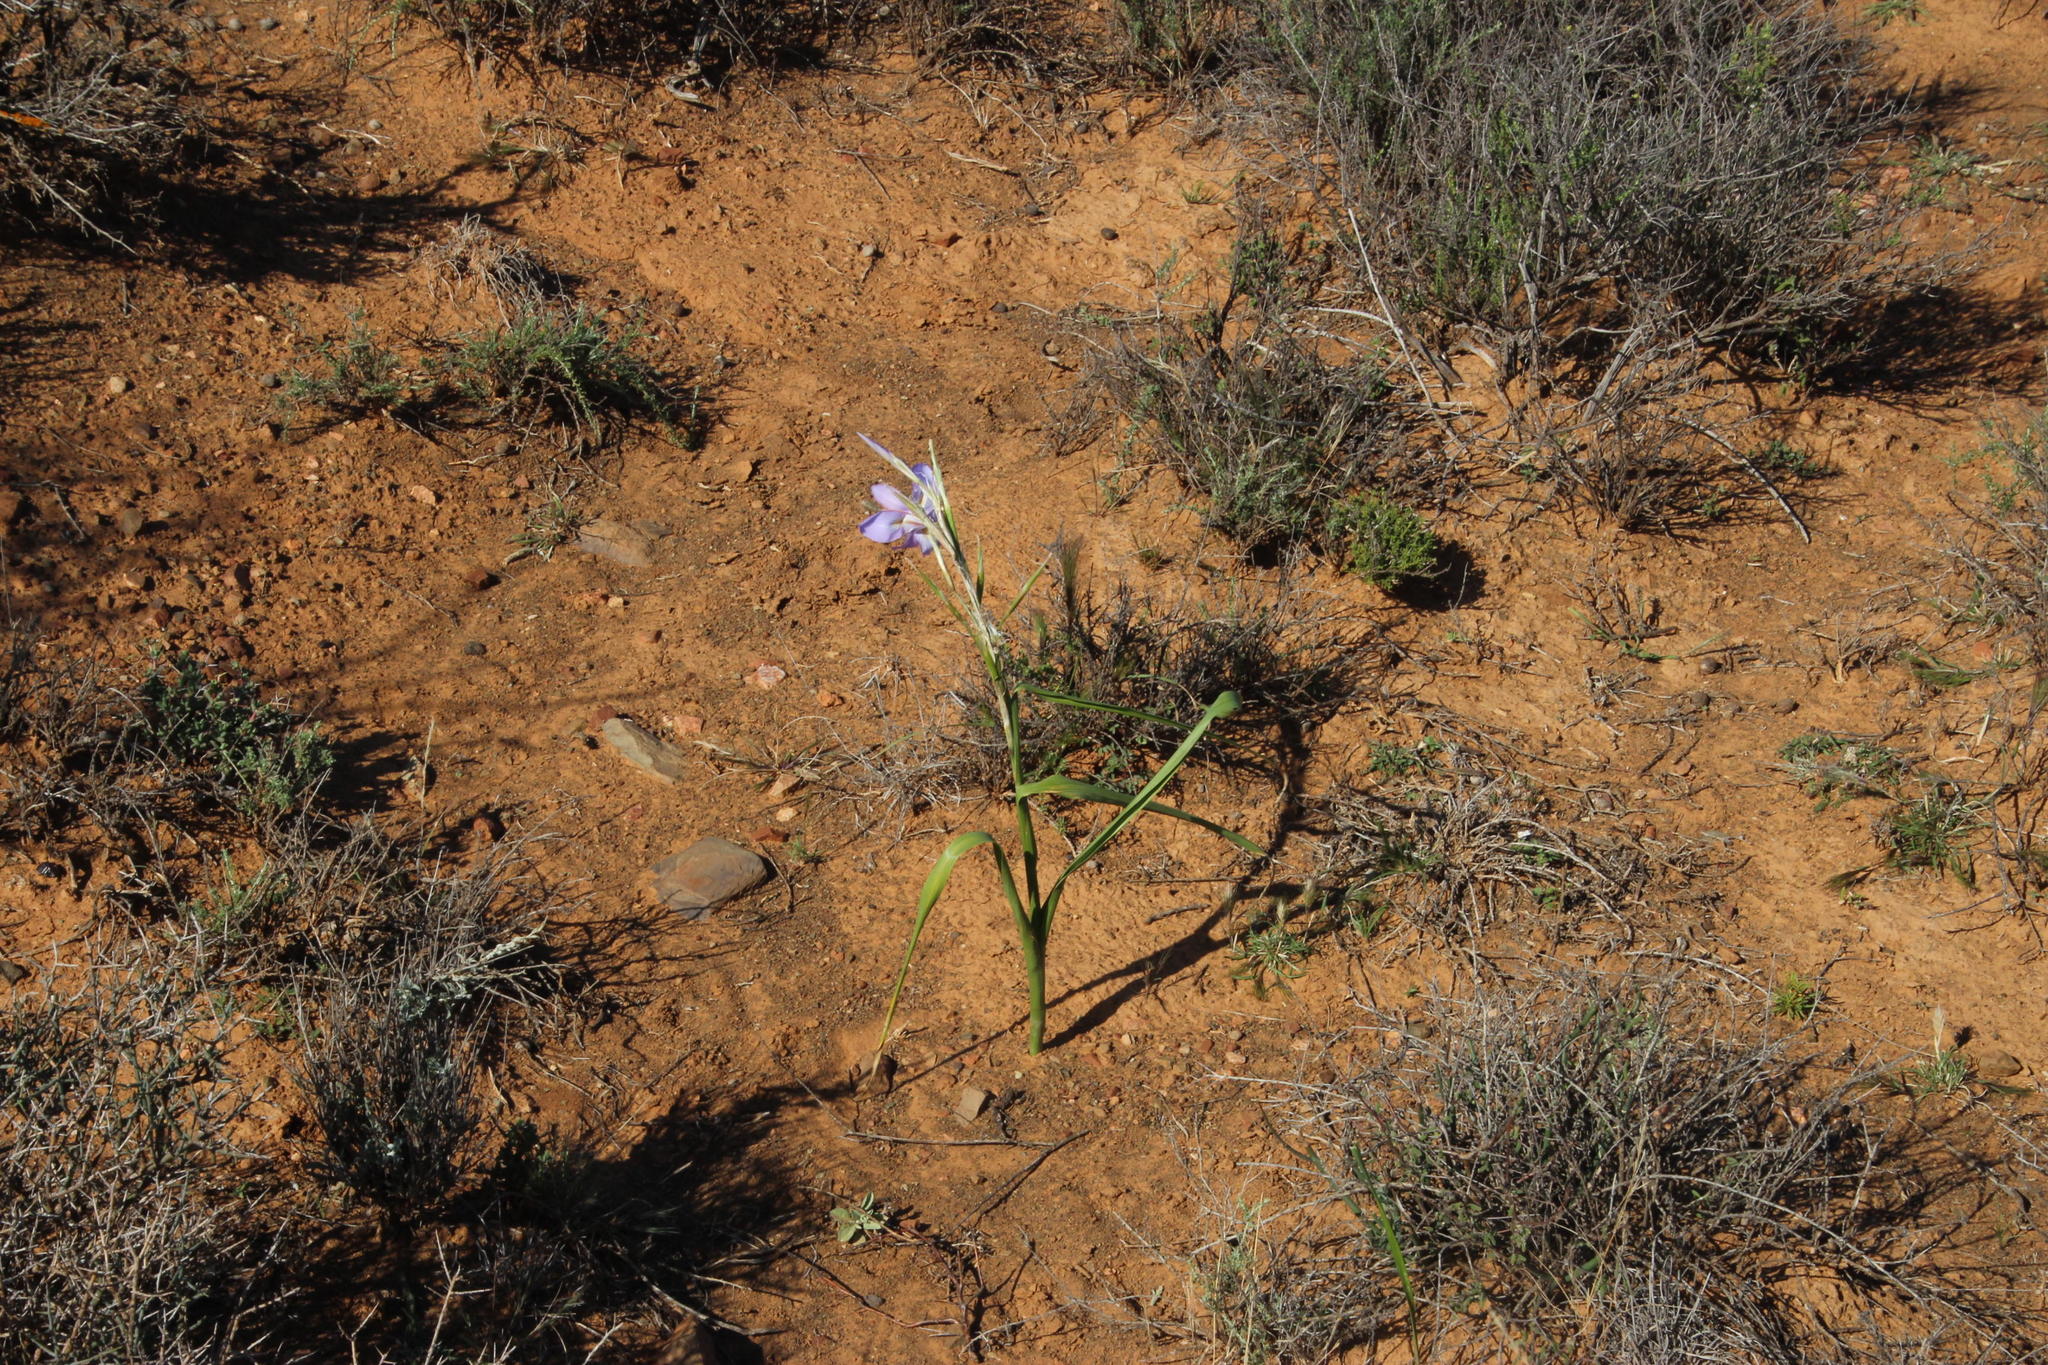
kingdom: Plantae
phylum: Tracheophyta
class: Liliopsida
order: Asparagales
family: Iridaceae
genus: Moraea
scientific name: Moraea polystachya
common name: Blue-tulip
